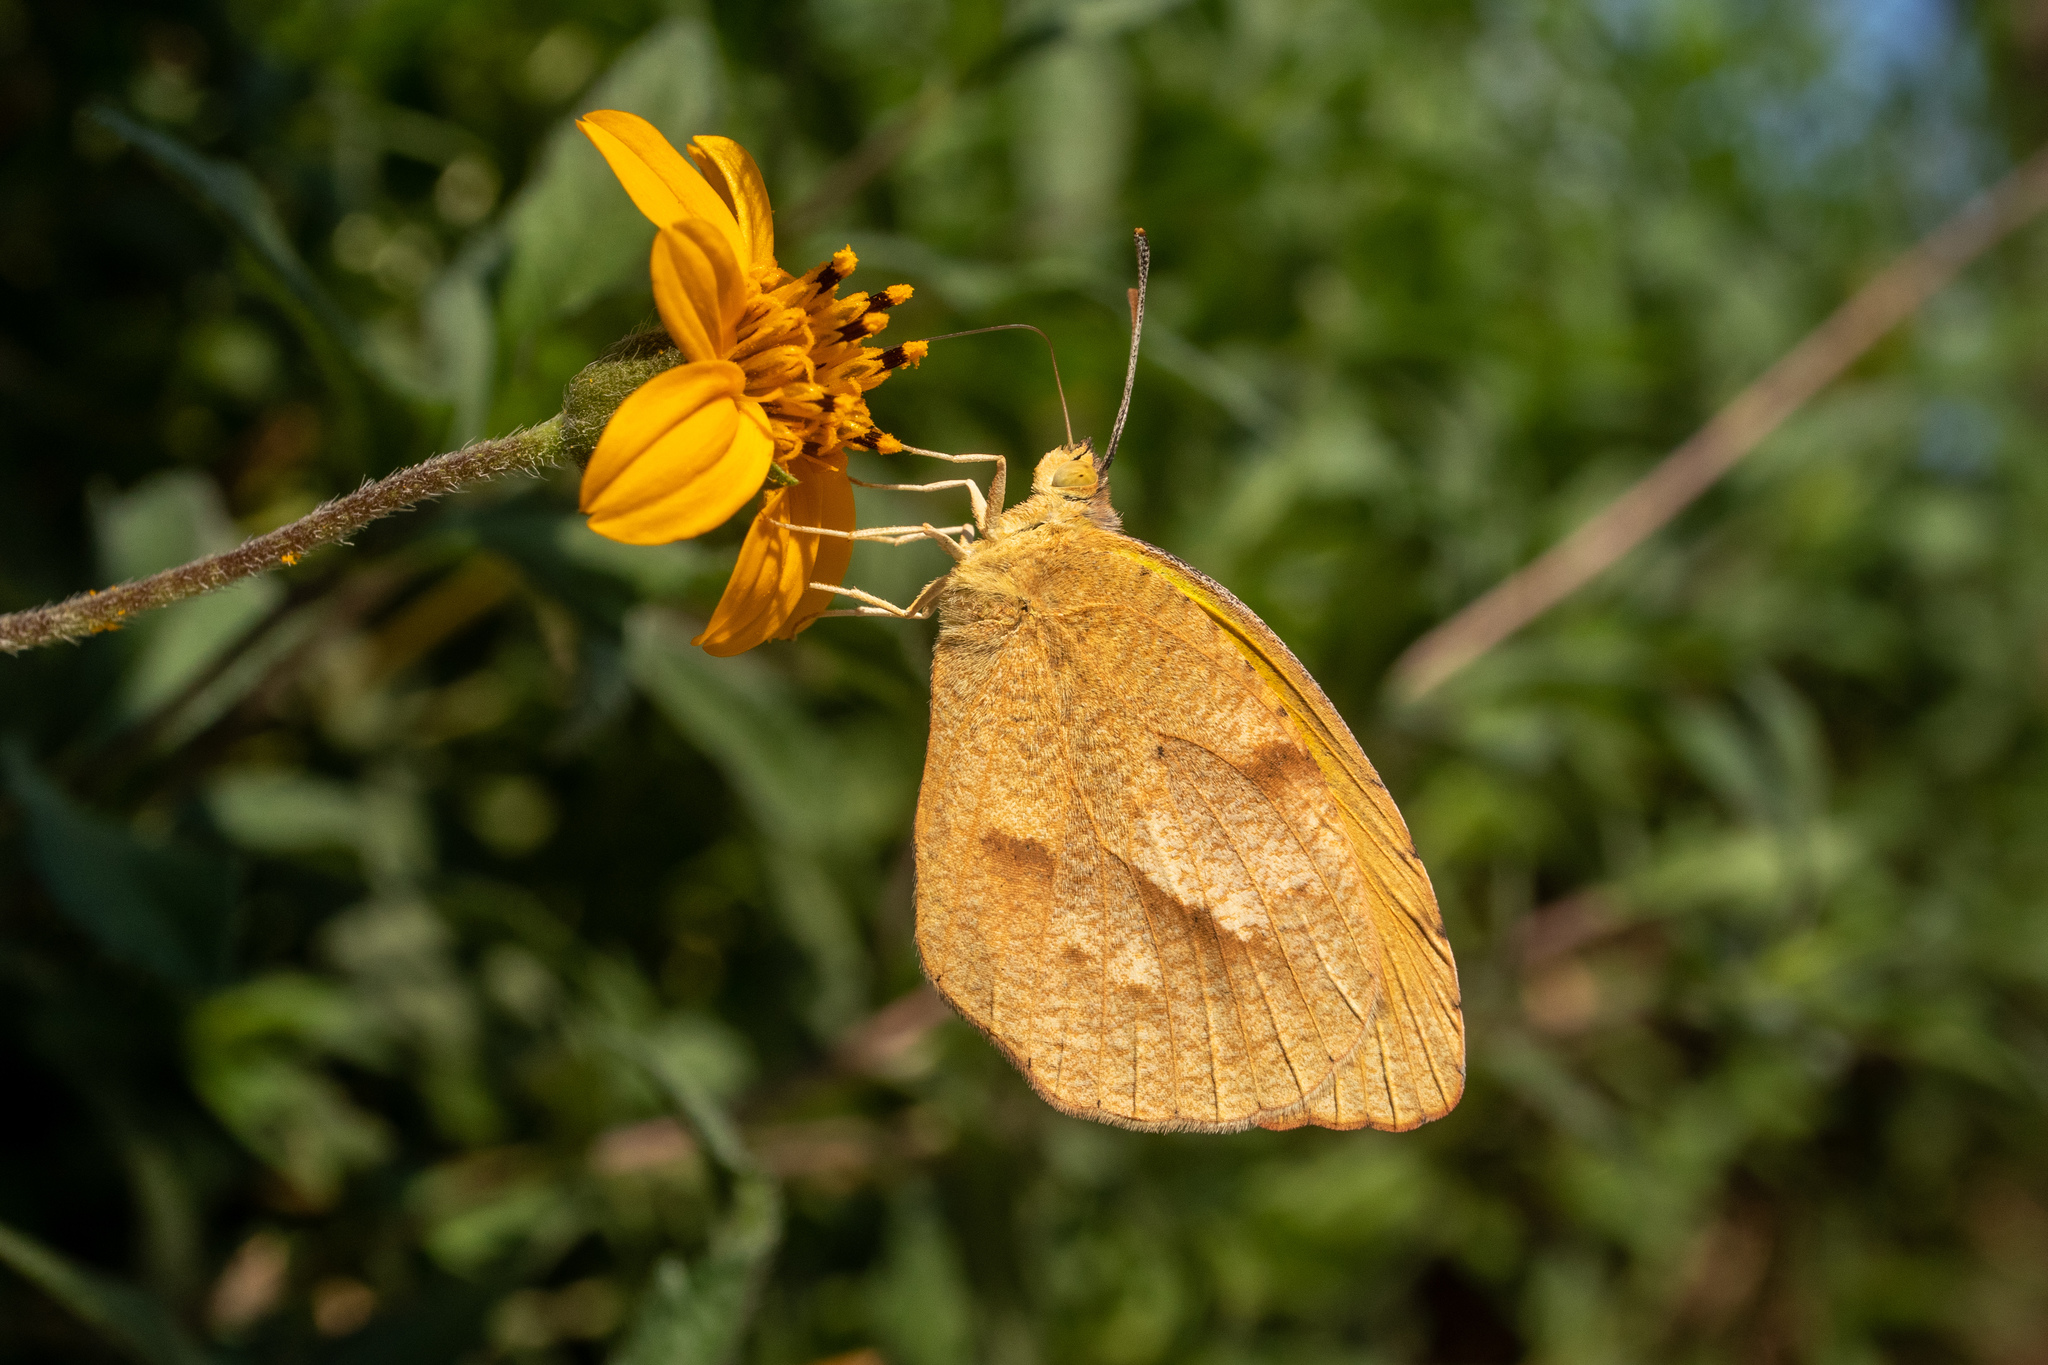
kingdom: Animalia
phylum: Arthropoda
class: Insecta
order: Lepidoptera
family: Pieridae
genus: Abaeis
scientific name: Abaeis nicippe
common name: Sleepy orange
